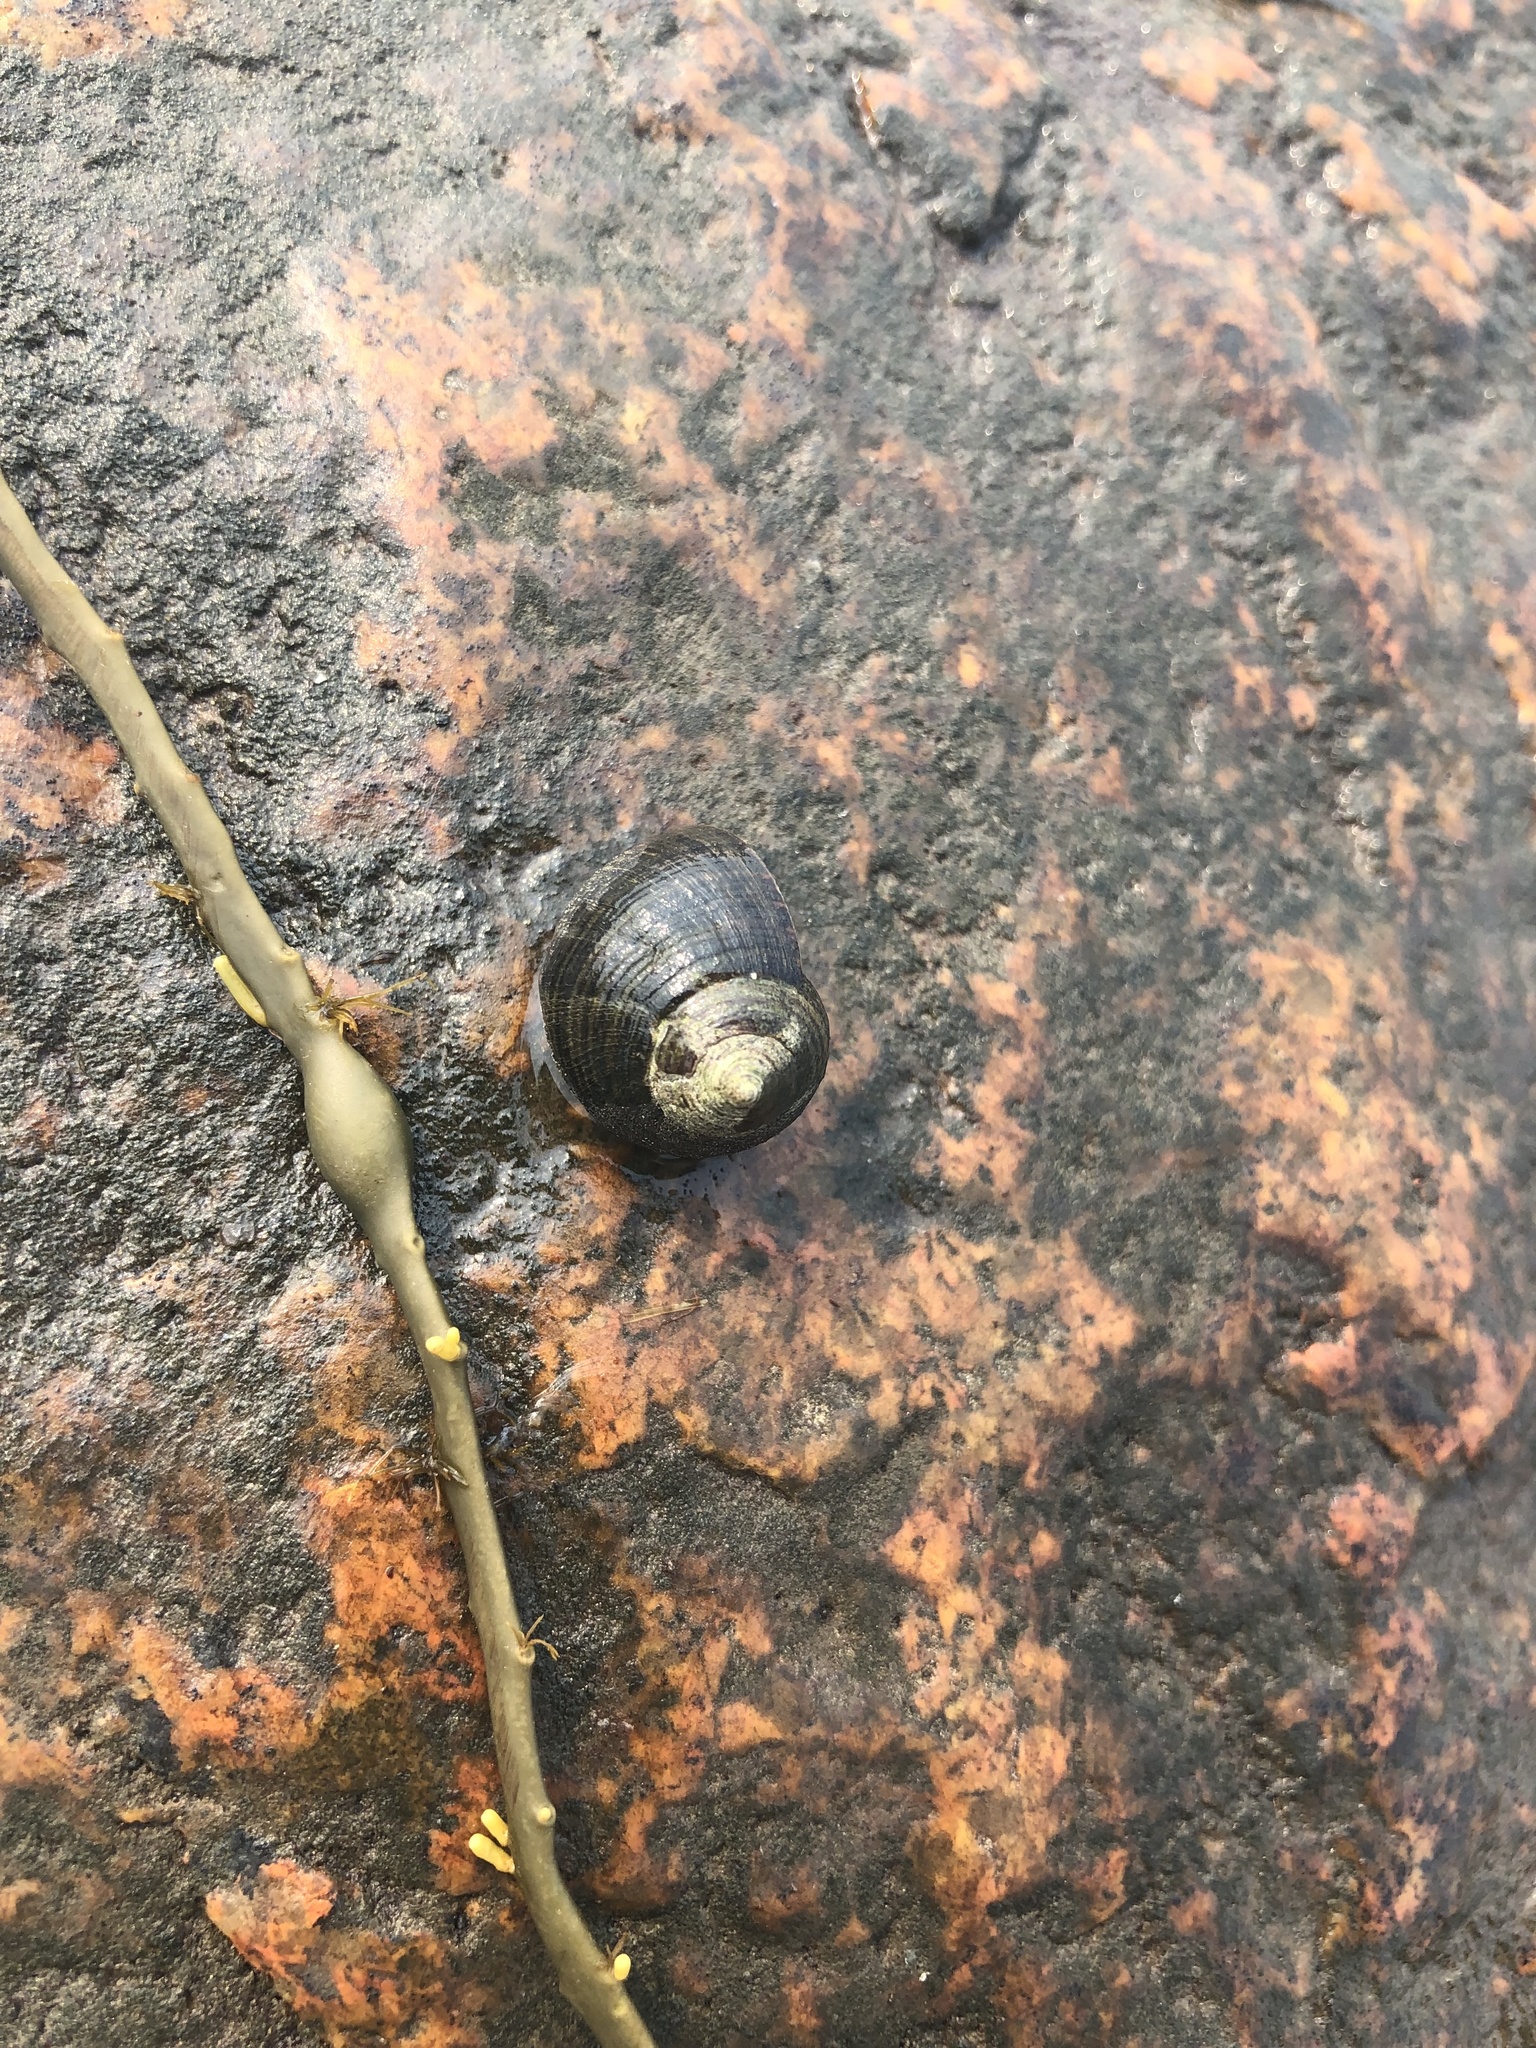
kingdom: Animalia
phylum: Mollusca
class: Gastropoda
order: Littorinimorpha
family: Littorinidae
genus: Littorina
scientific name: Littorina littorea
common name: Common periwinkle
